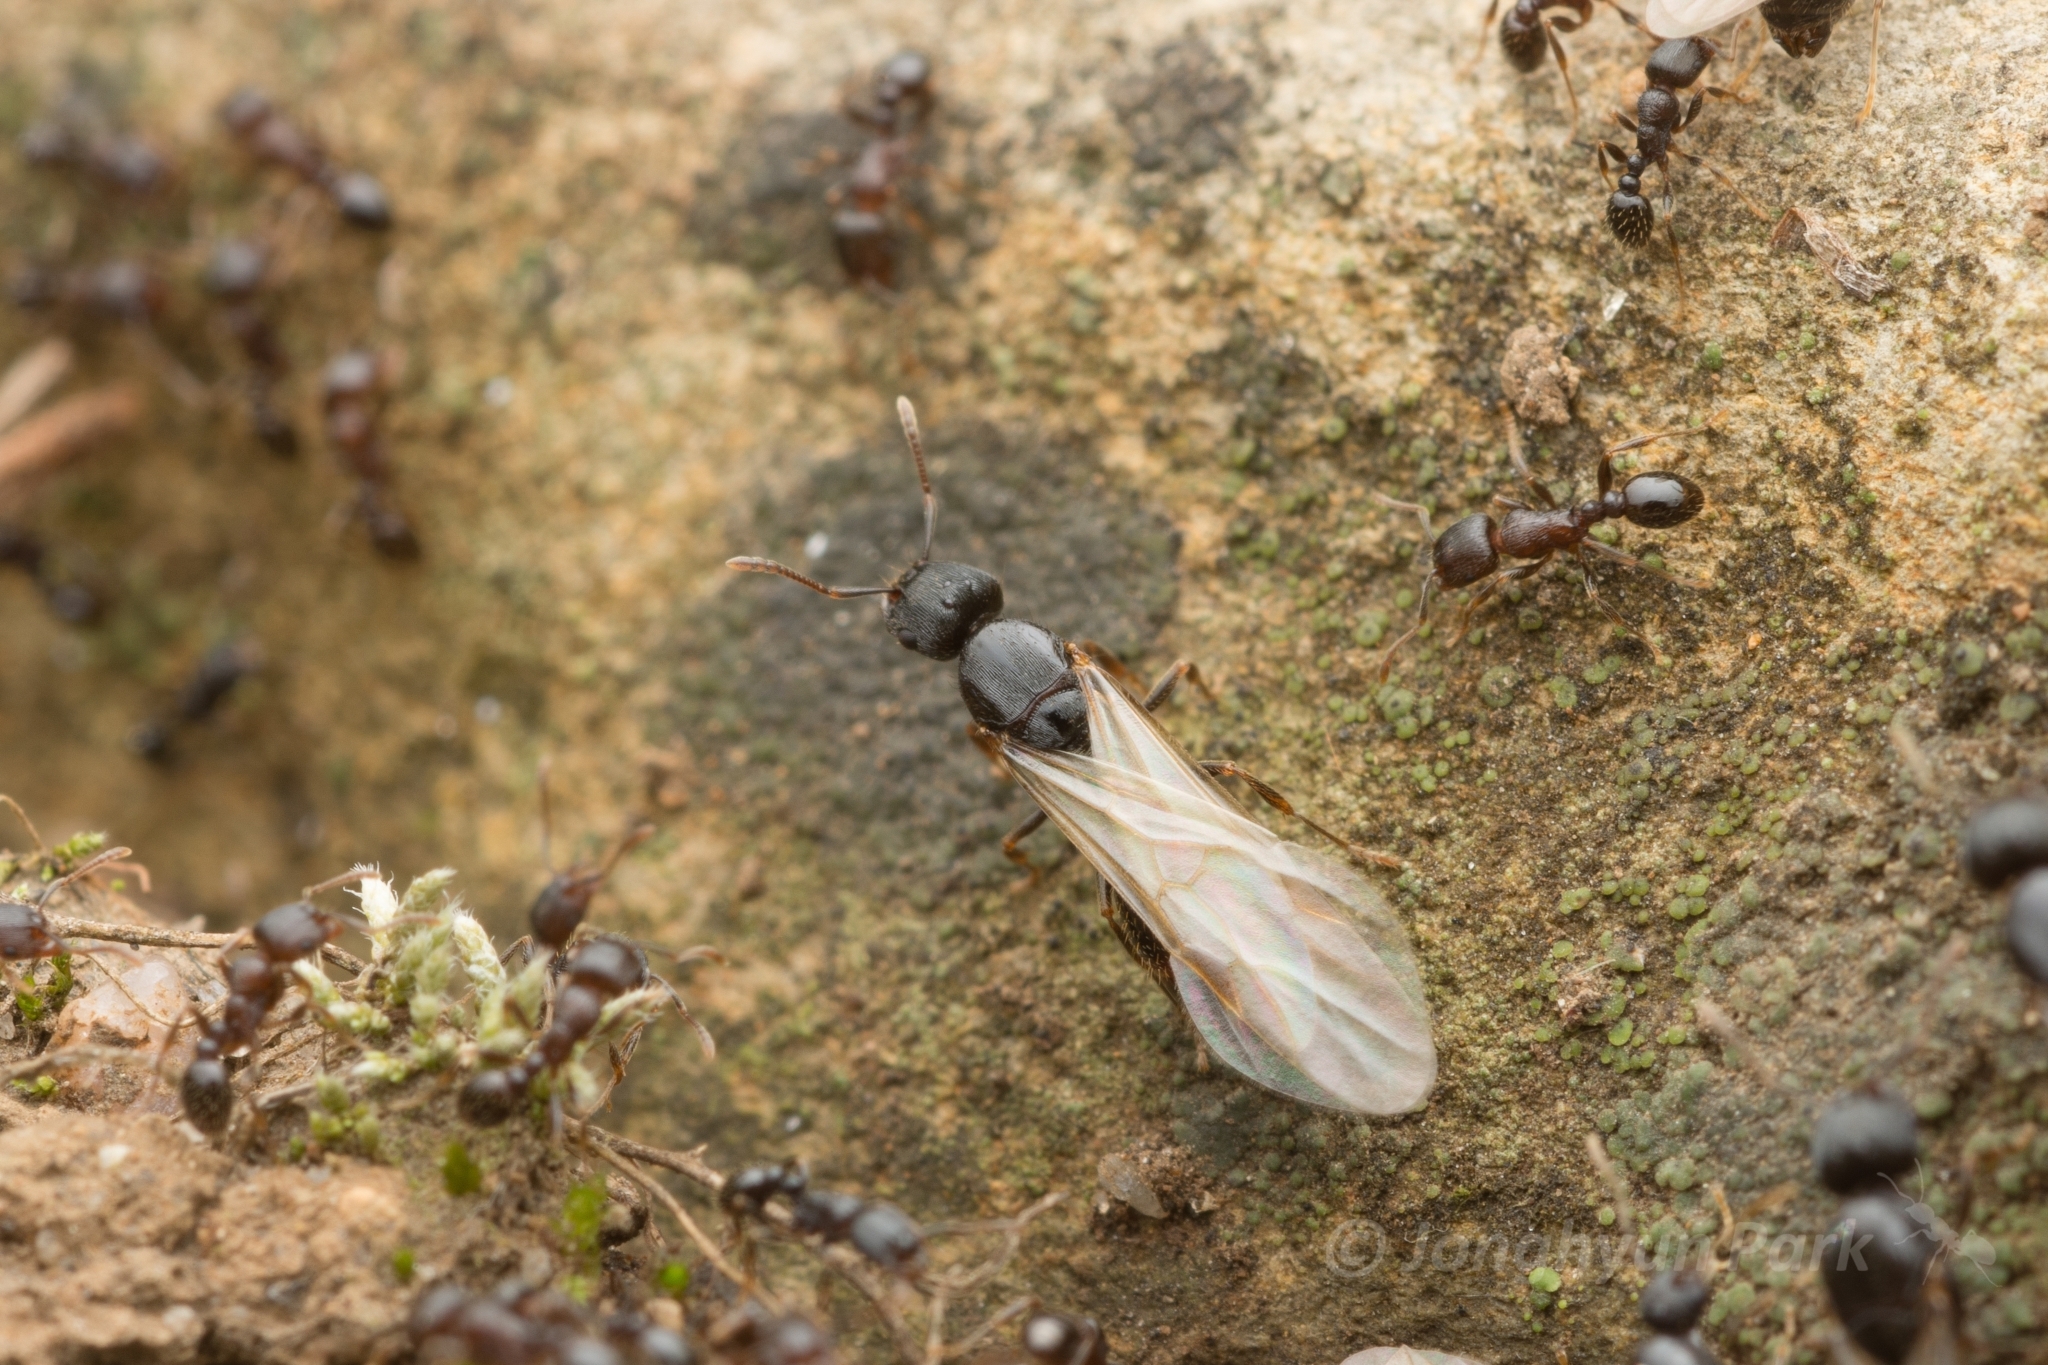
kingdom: Animalia
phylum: Arthropoda
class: Insecta
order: Hymenoptera
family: Formicidae
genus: Tetramorium
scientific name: Tetramorium tsushimae
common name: Ant
